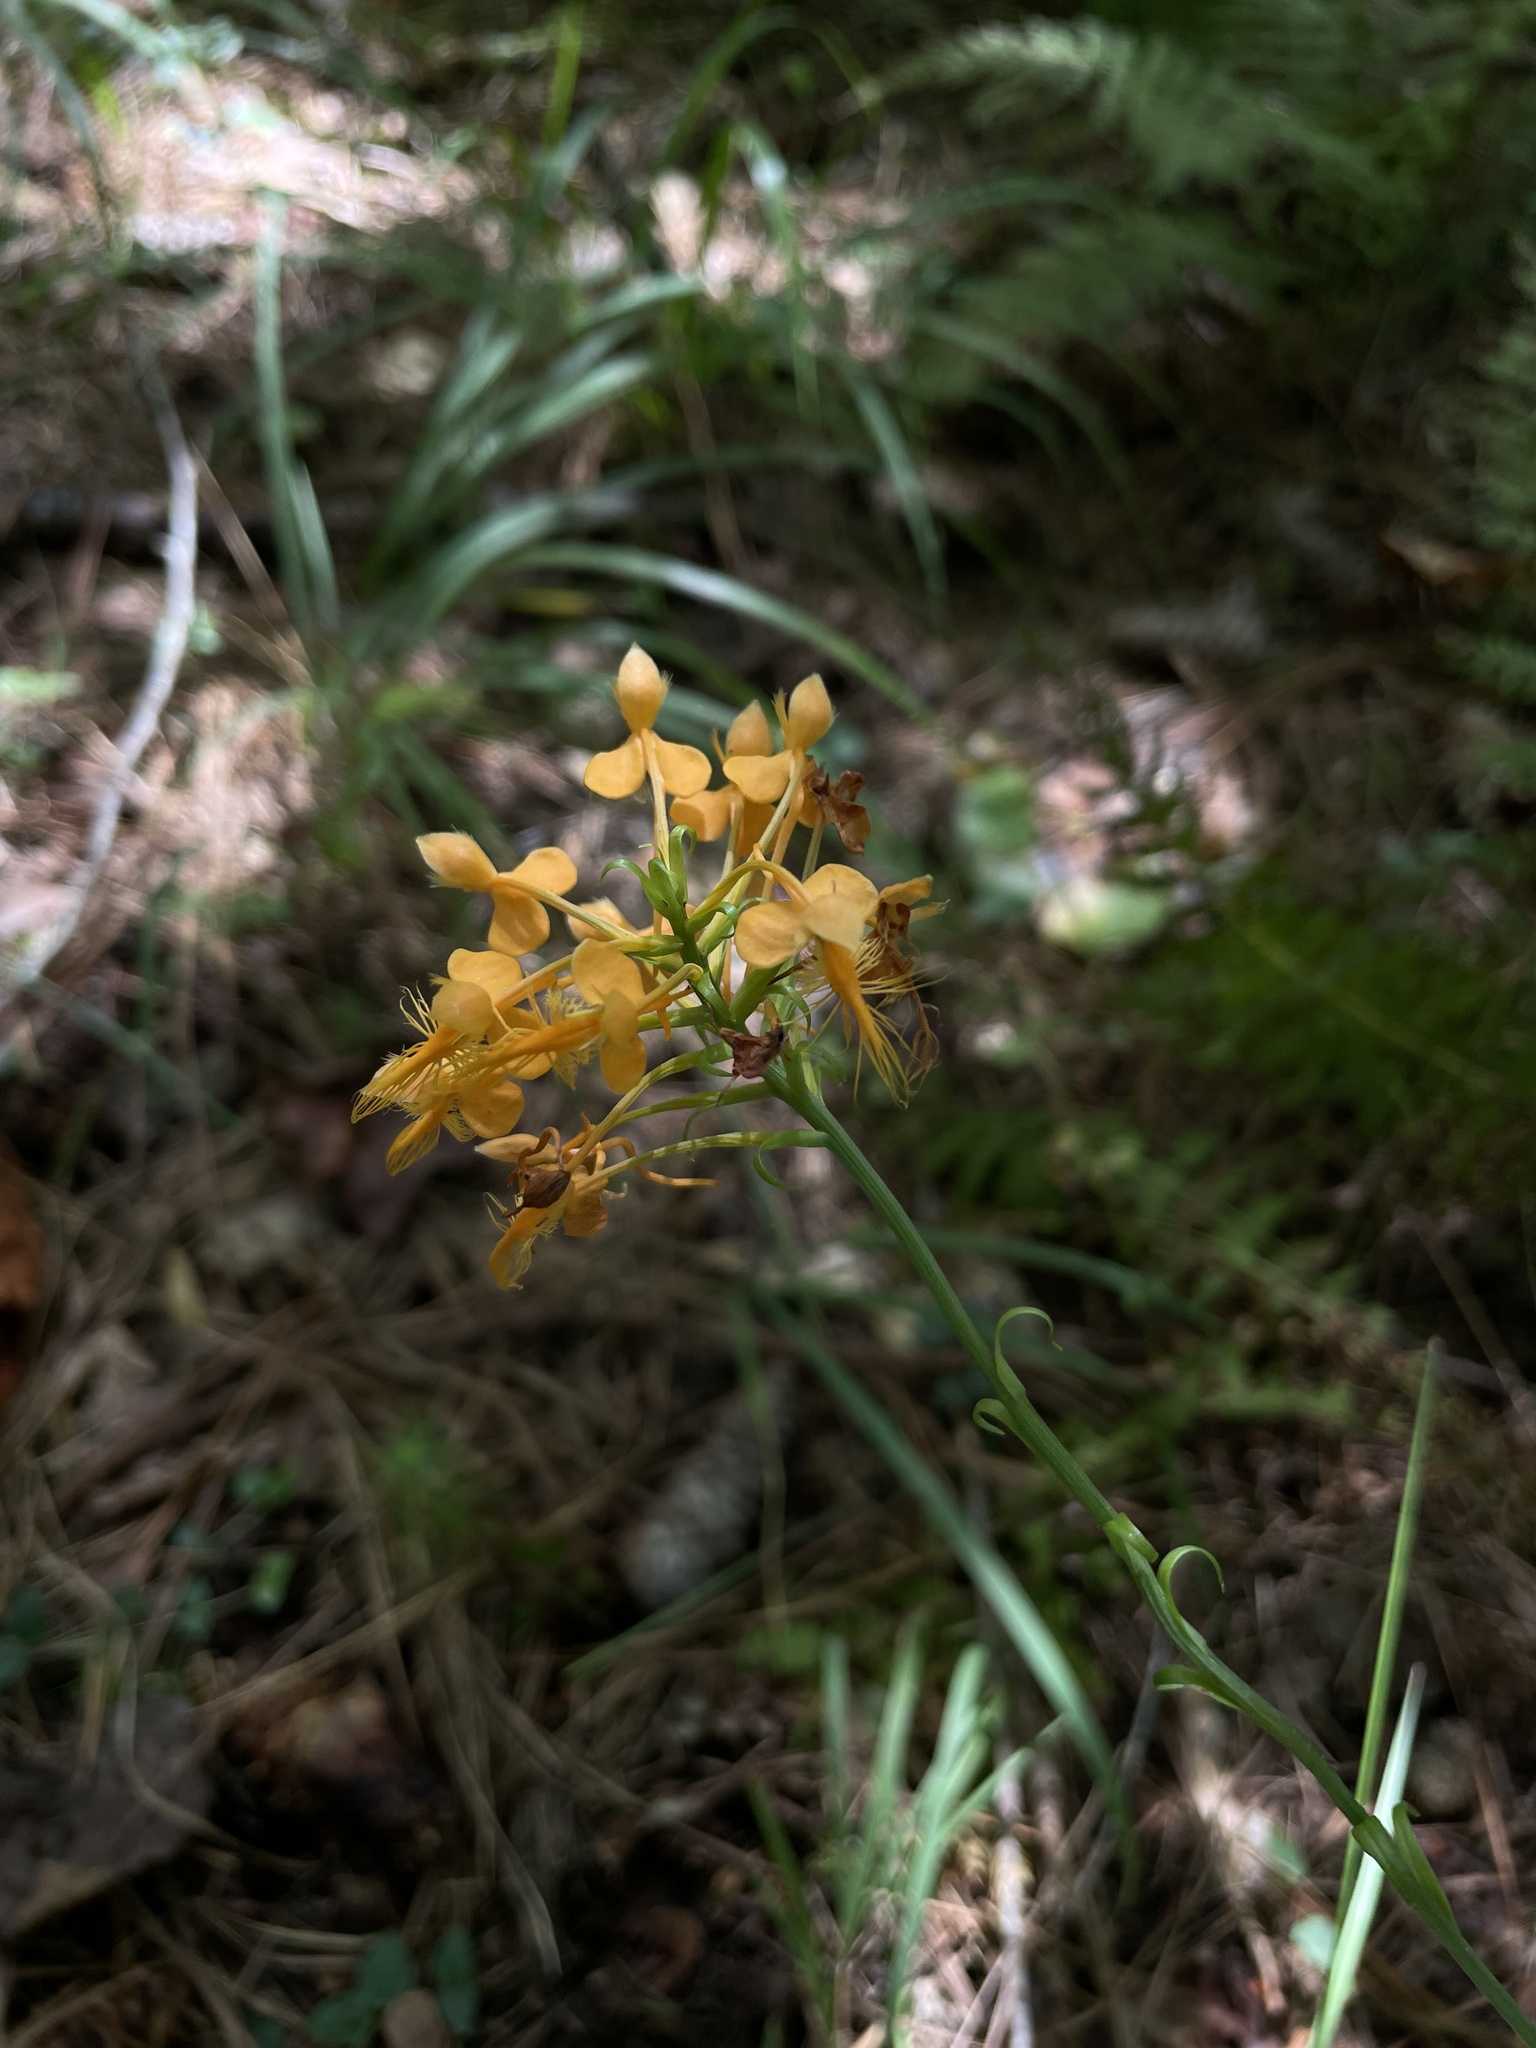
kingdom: Plantae
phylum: Tracheophyta
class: Liliopsida
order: Asparagales
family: Orchidaceae
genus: Platanthera
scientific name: Platanthera ciliaris
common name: Yellow fringed orchid
